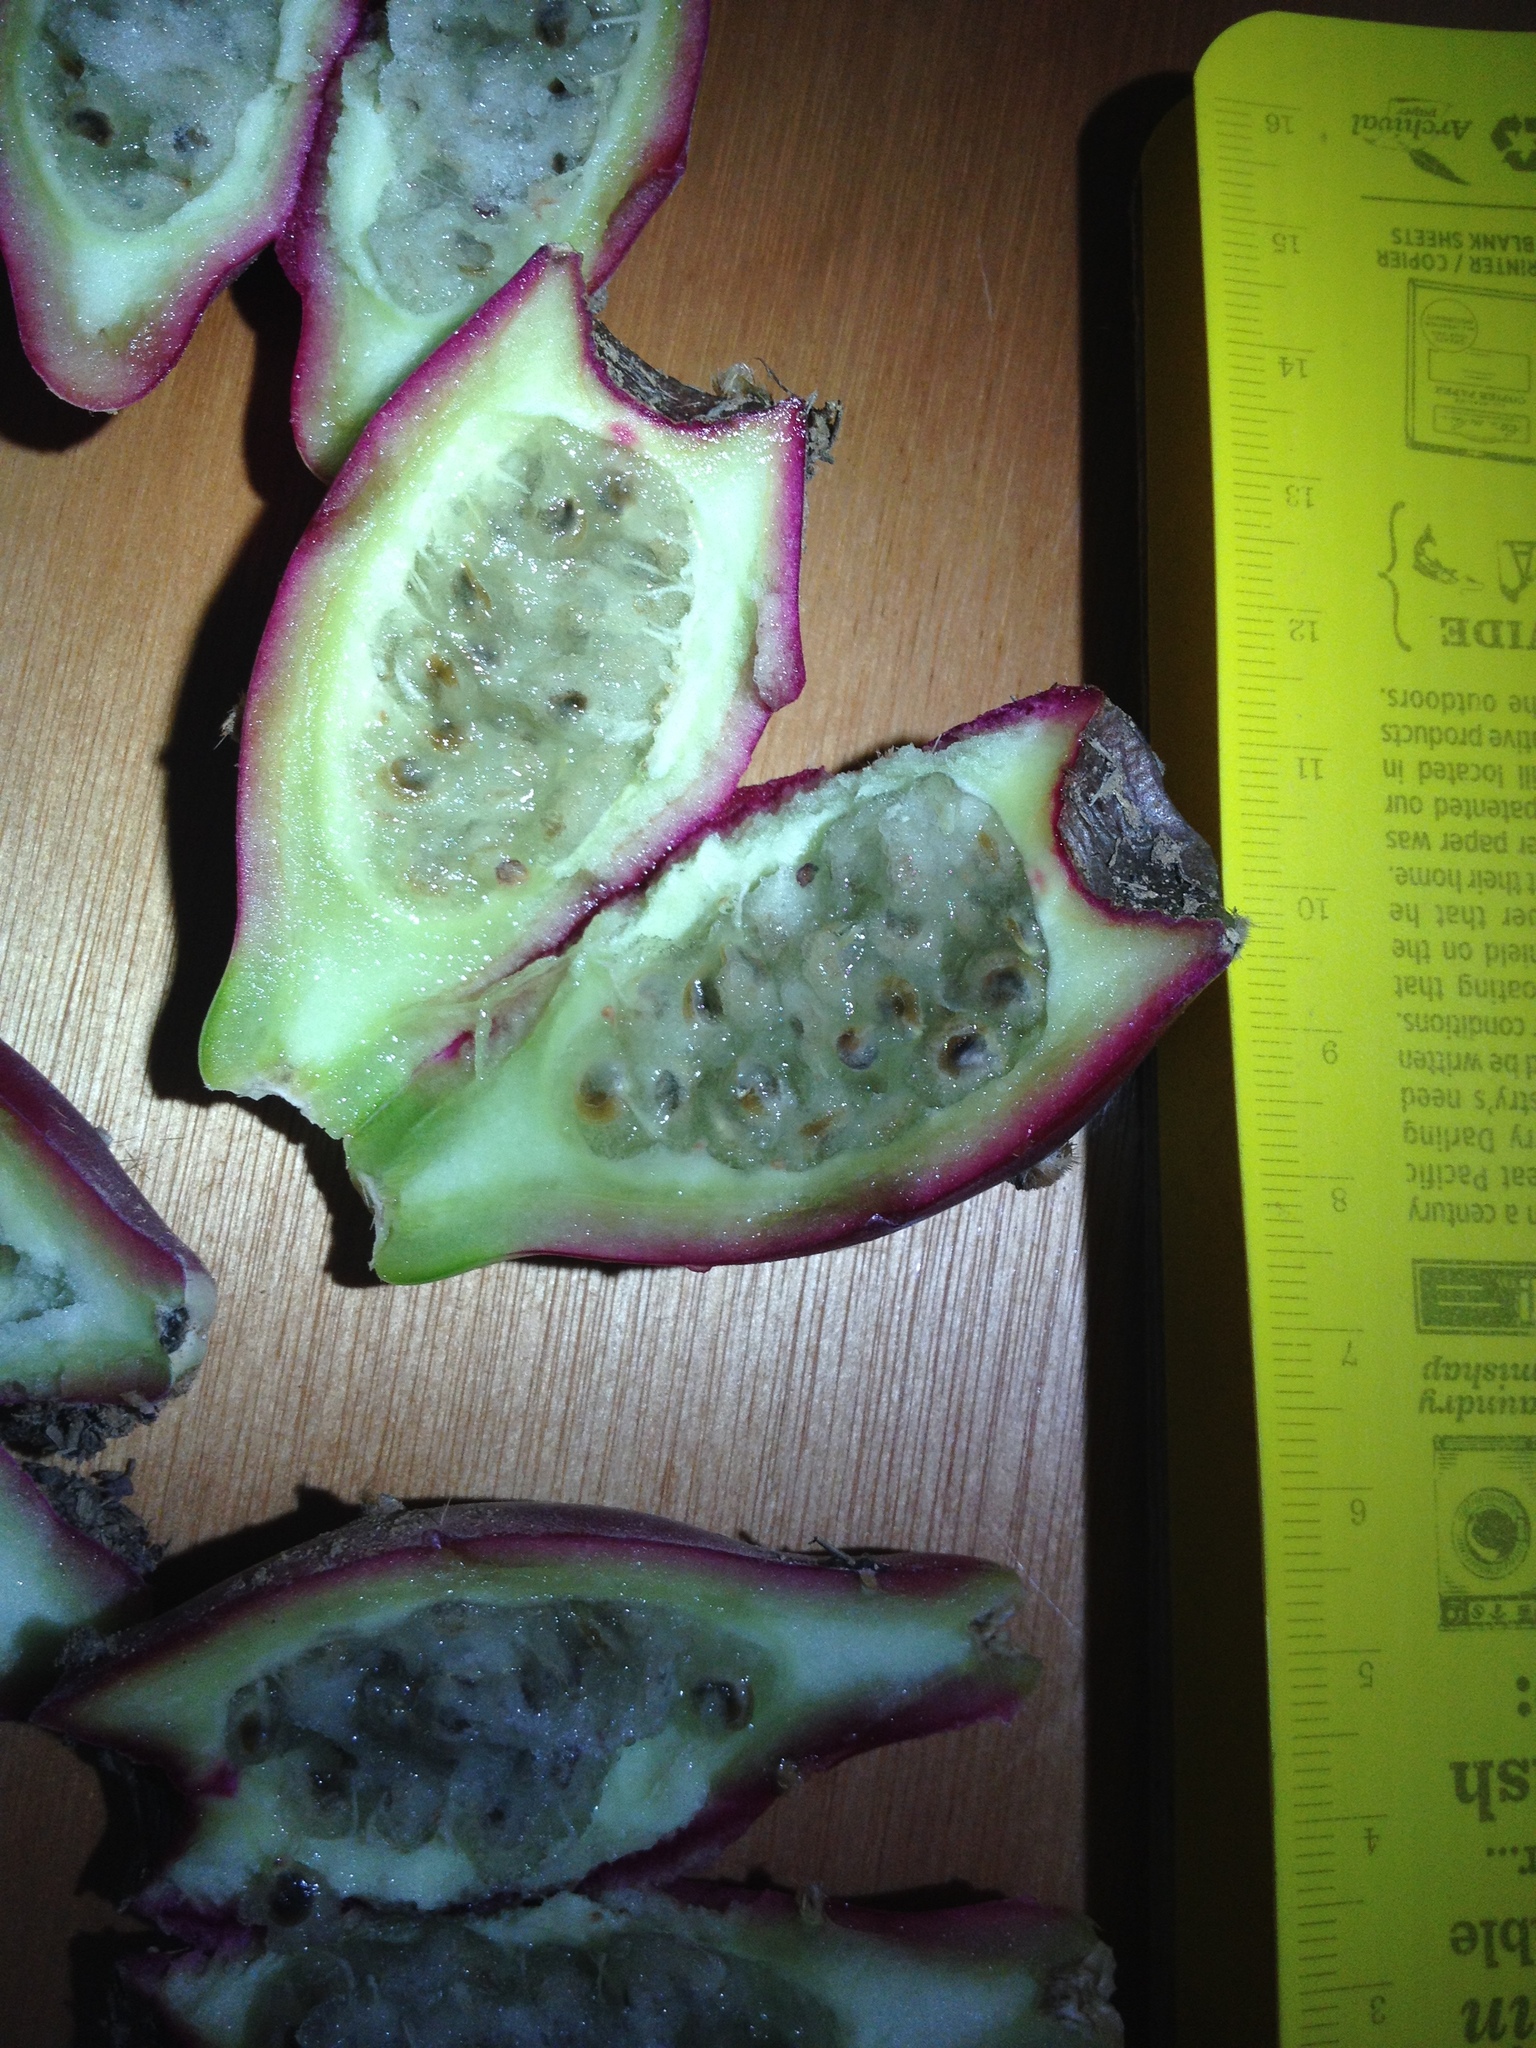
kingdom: Plantae
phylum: Tracheophyta
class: Magnoliopsida
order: Caryophyllales
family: Cactaceae
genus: Opuntia
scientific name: Opuntia elata
